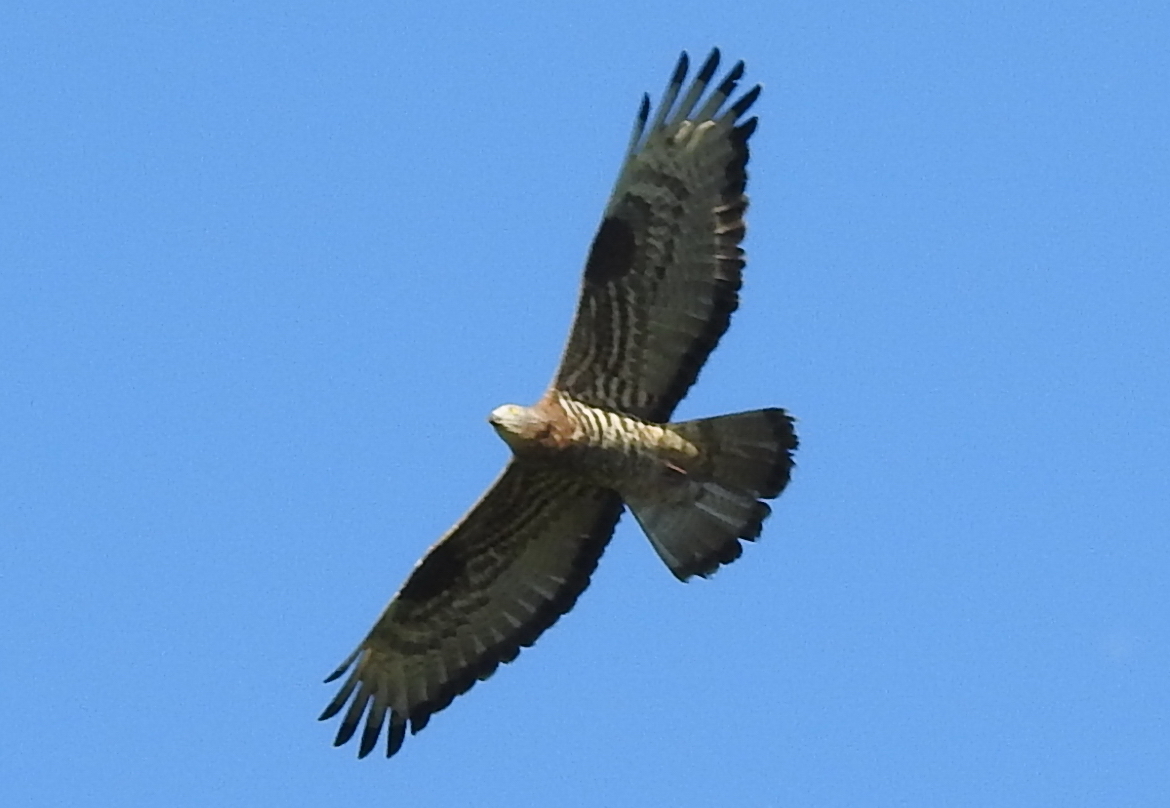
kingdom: Animalia
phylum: Chordata
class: Aves
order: Accipitriformes
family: Accipitridae
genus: Pernis
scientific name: Pernis apivorus
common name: European honey buzzard
